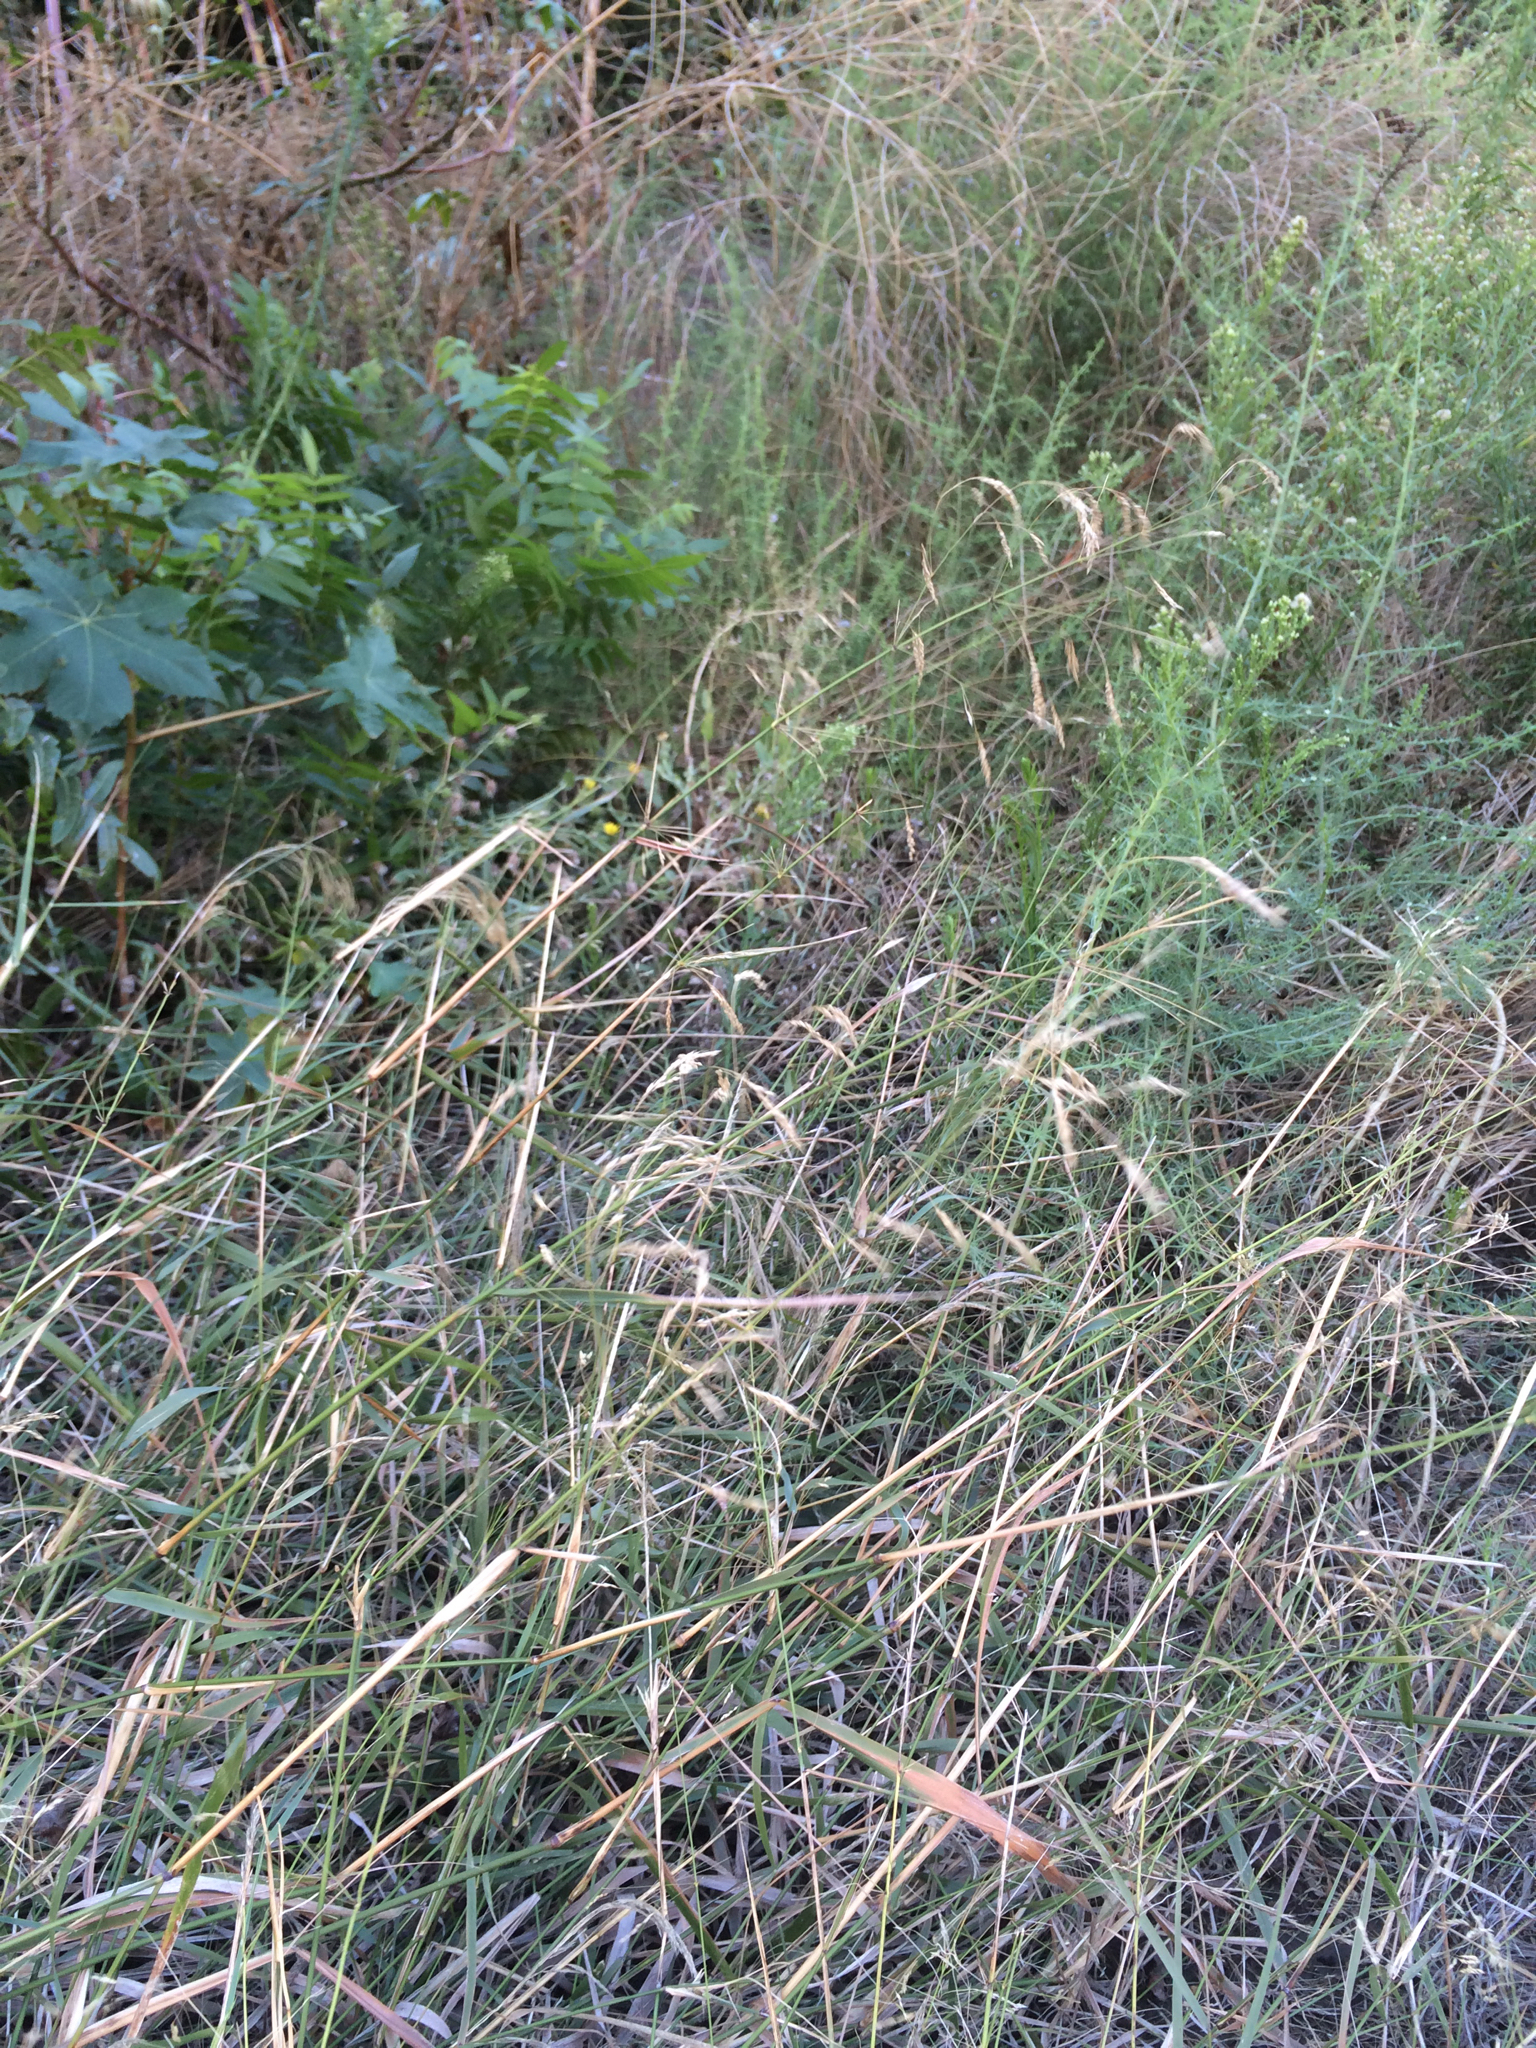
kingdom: Plantae
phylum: Tracheophyta
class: Liliopsida
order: Poales
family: Poaceae
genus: Oloptum
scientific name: Oloptum miliaceum
